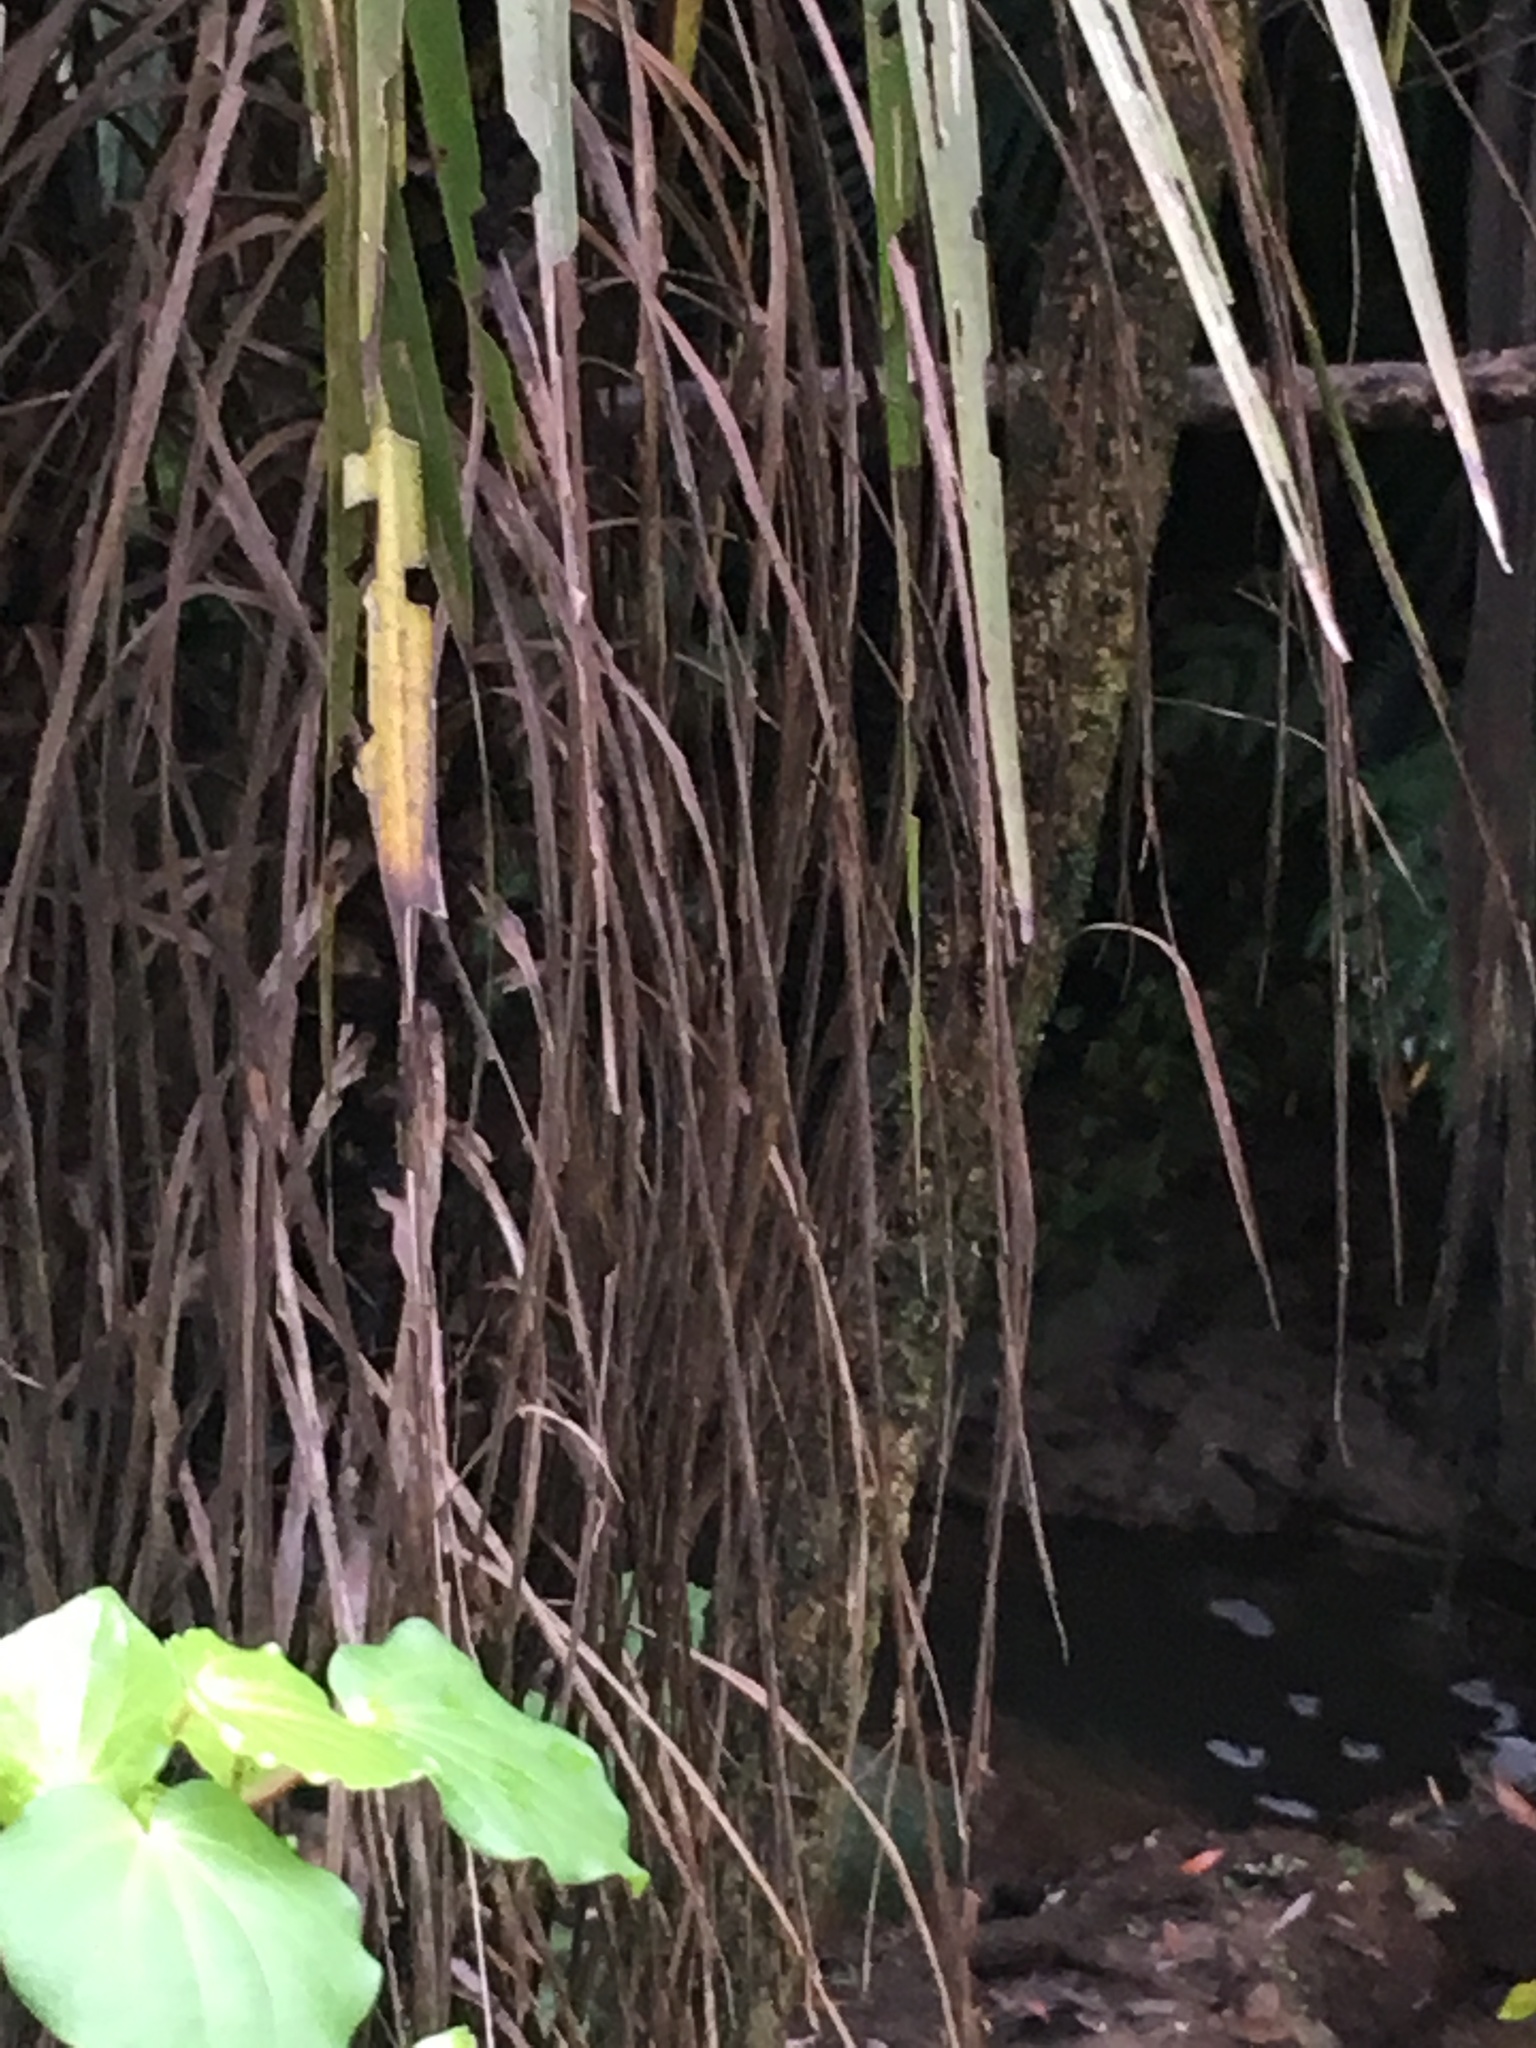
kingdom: Plantae
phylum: Tracheophyta
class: Liliopsida
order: Asparagales
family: Asparagaceae
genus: Cordyline
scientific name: Cordyline australis
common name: Cabbage-palm
